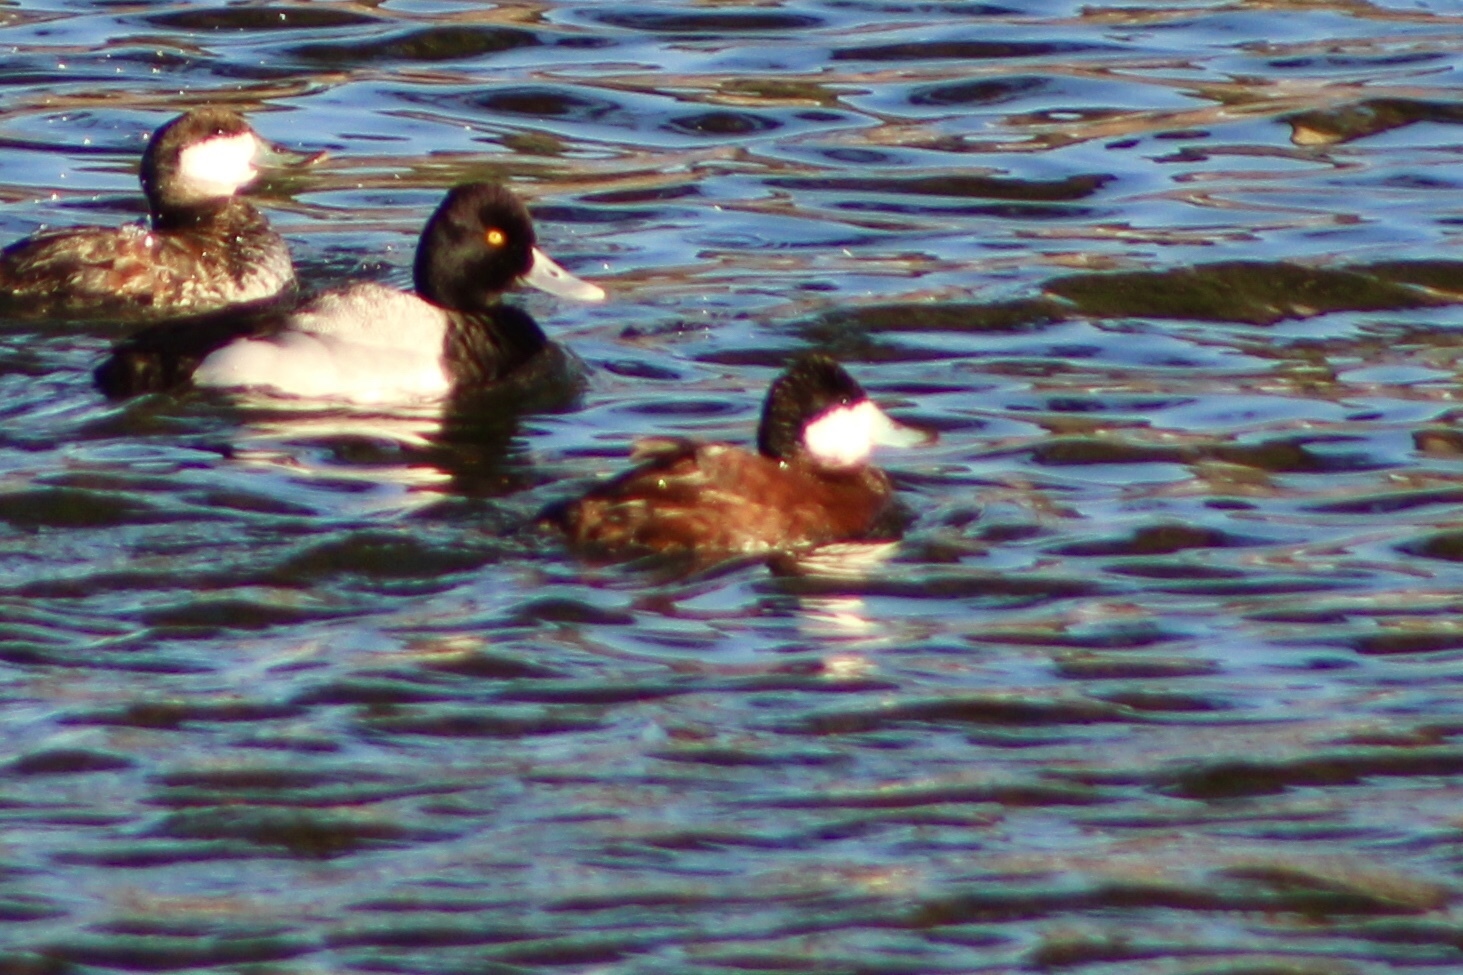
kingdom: Animalia
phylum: Chordata
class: Aves
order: Anseriformes
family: Anatidae
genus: Oxyura
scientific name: Oxyura jamaicensis
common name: Ruddy duck
